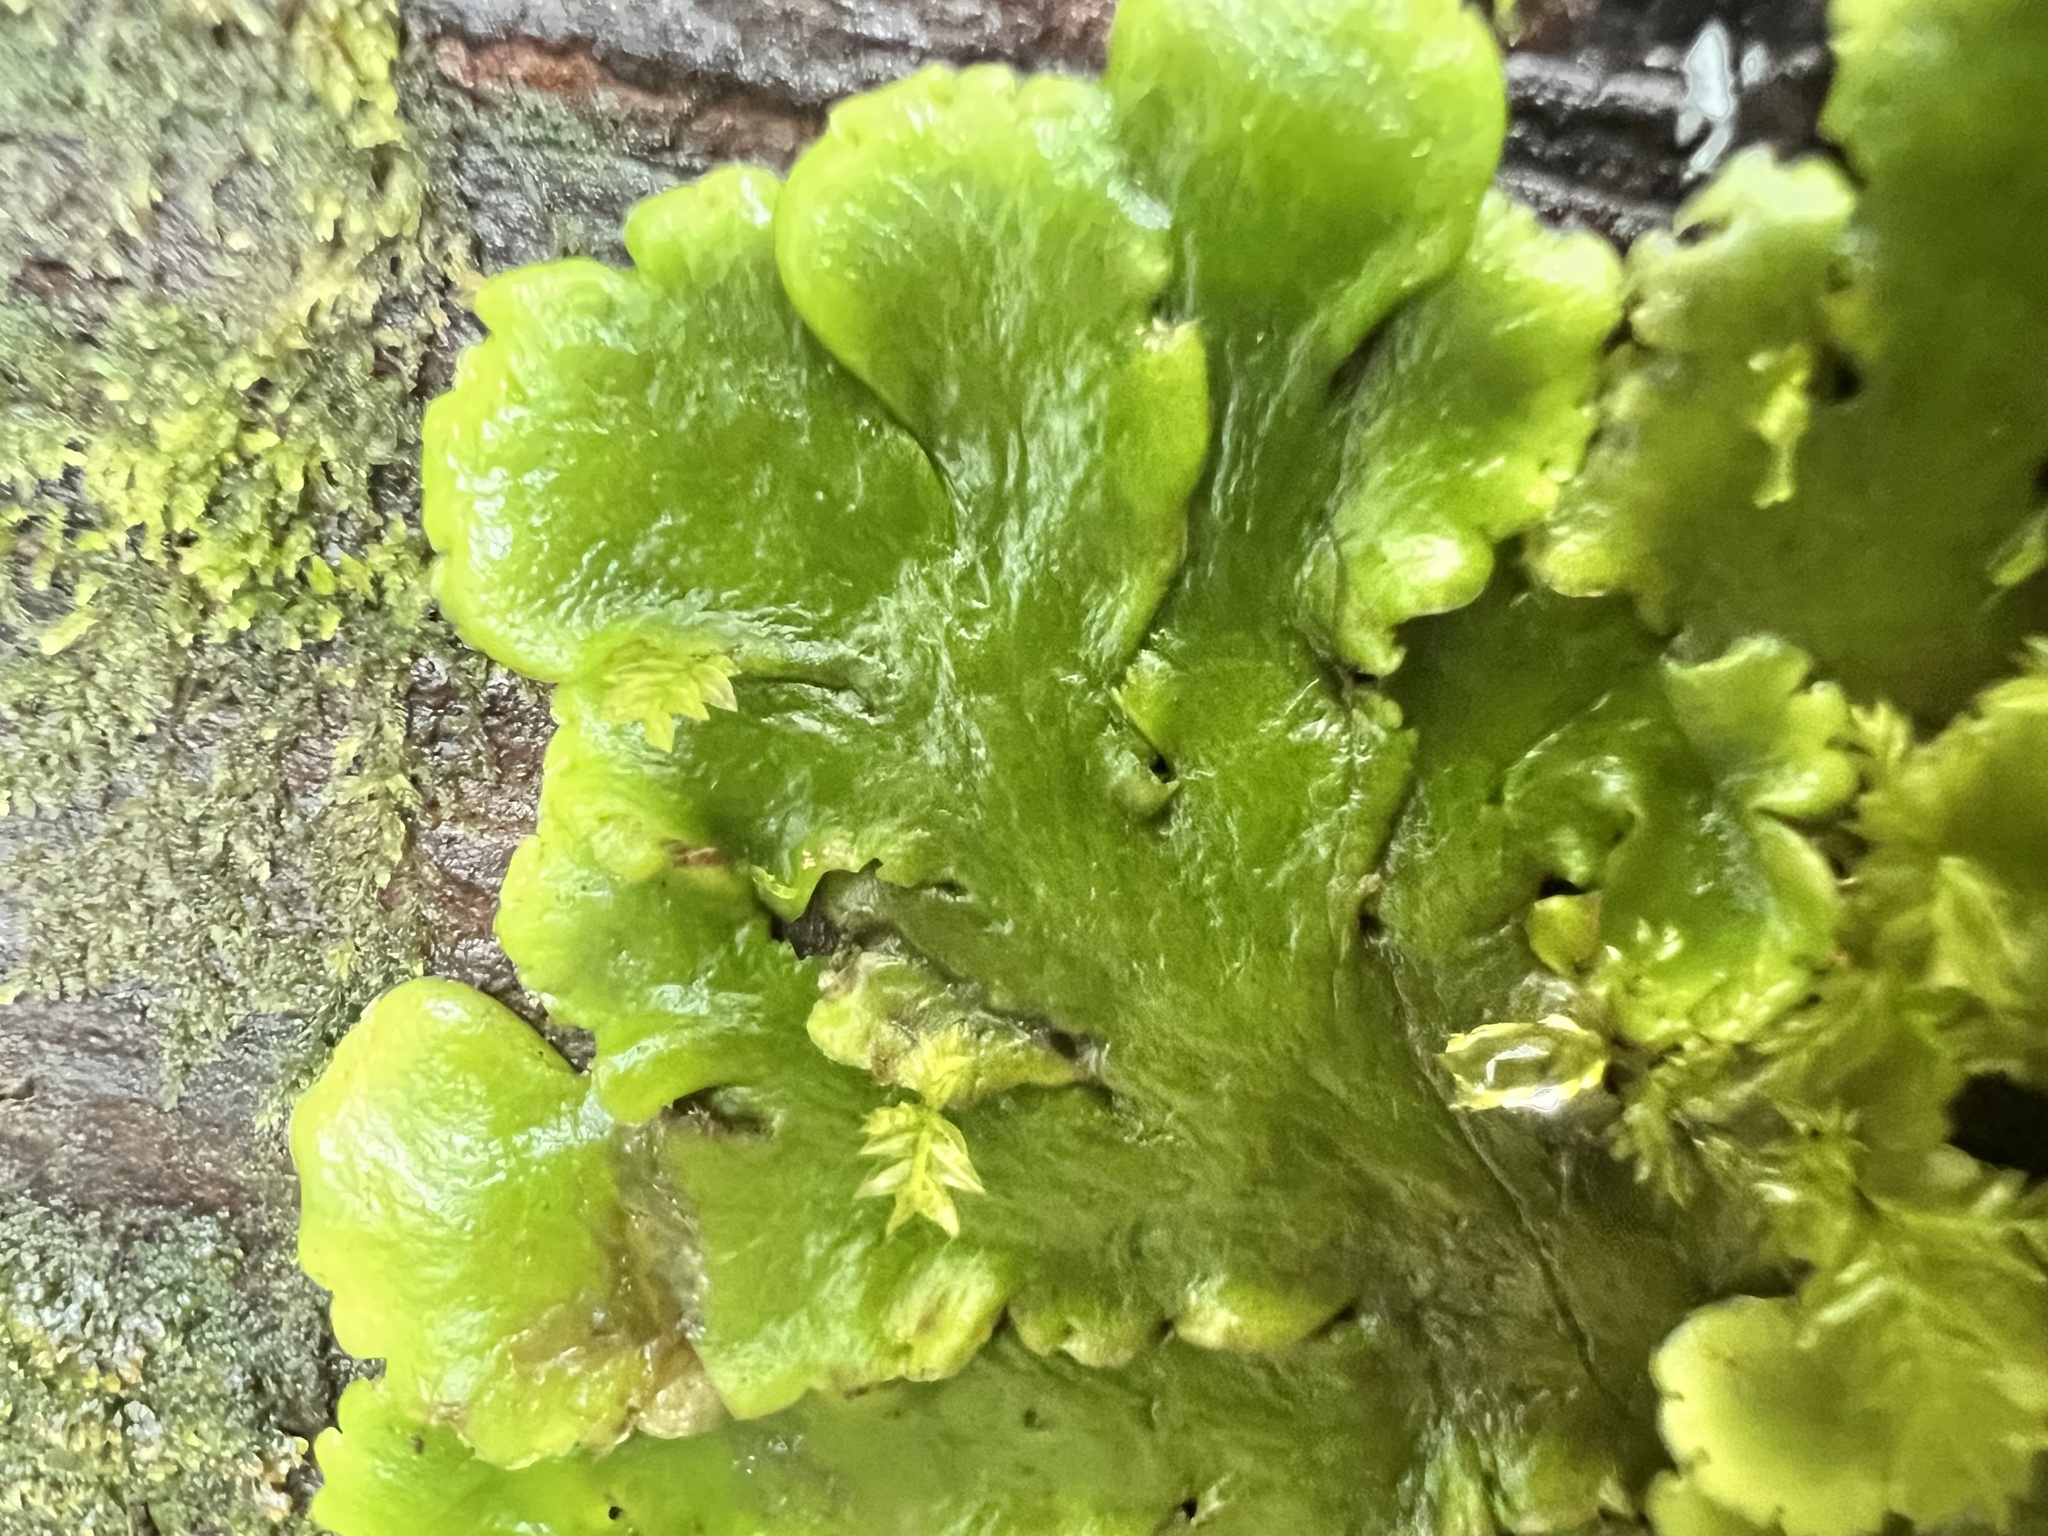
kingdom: Plantae
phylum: Marchantiophyta
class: Marchantiopsida
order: Marchantiales
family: Monocleaceae
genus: Monoclea
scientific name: Monoclea forsteri
